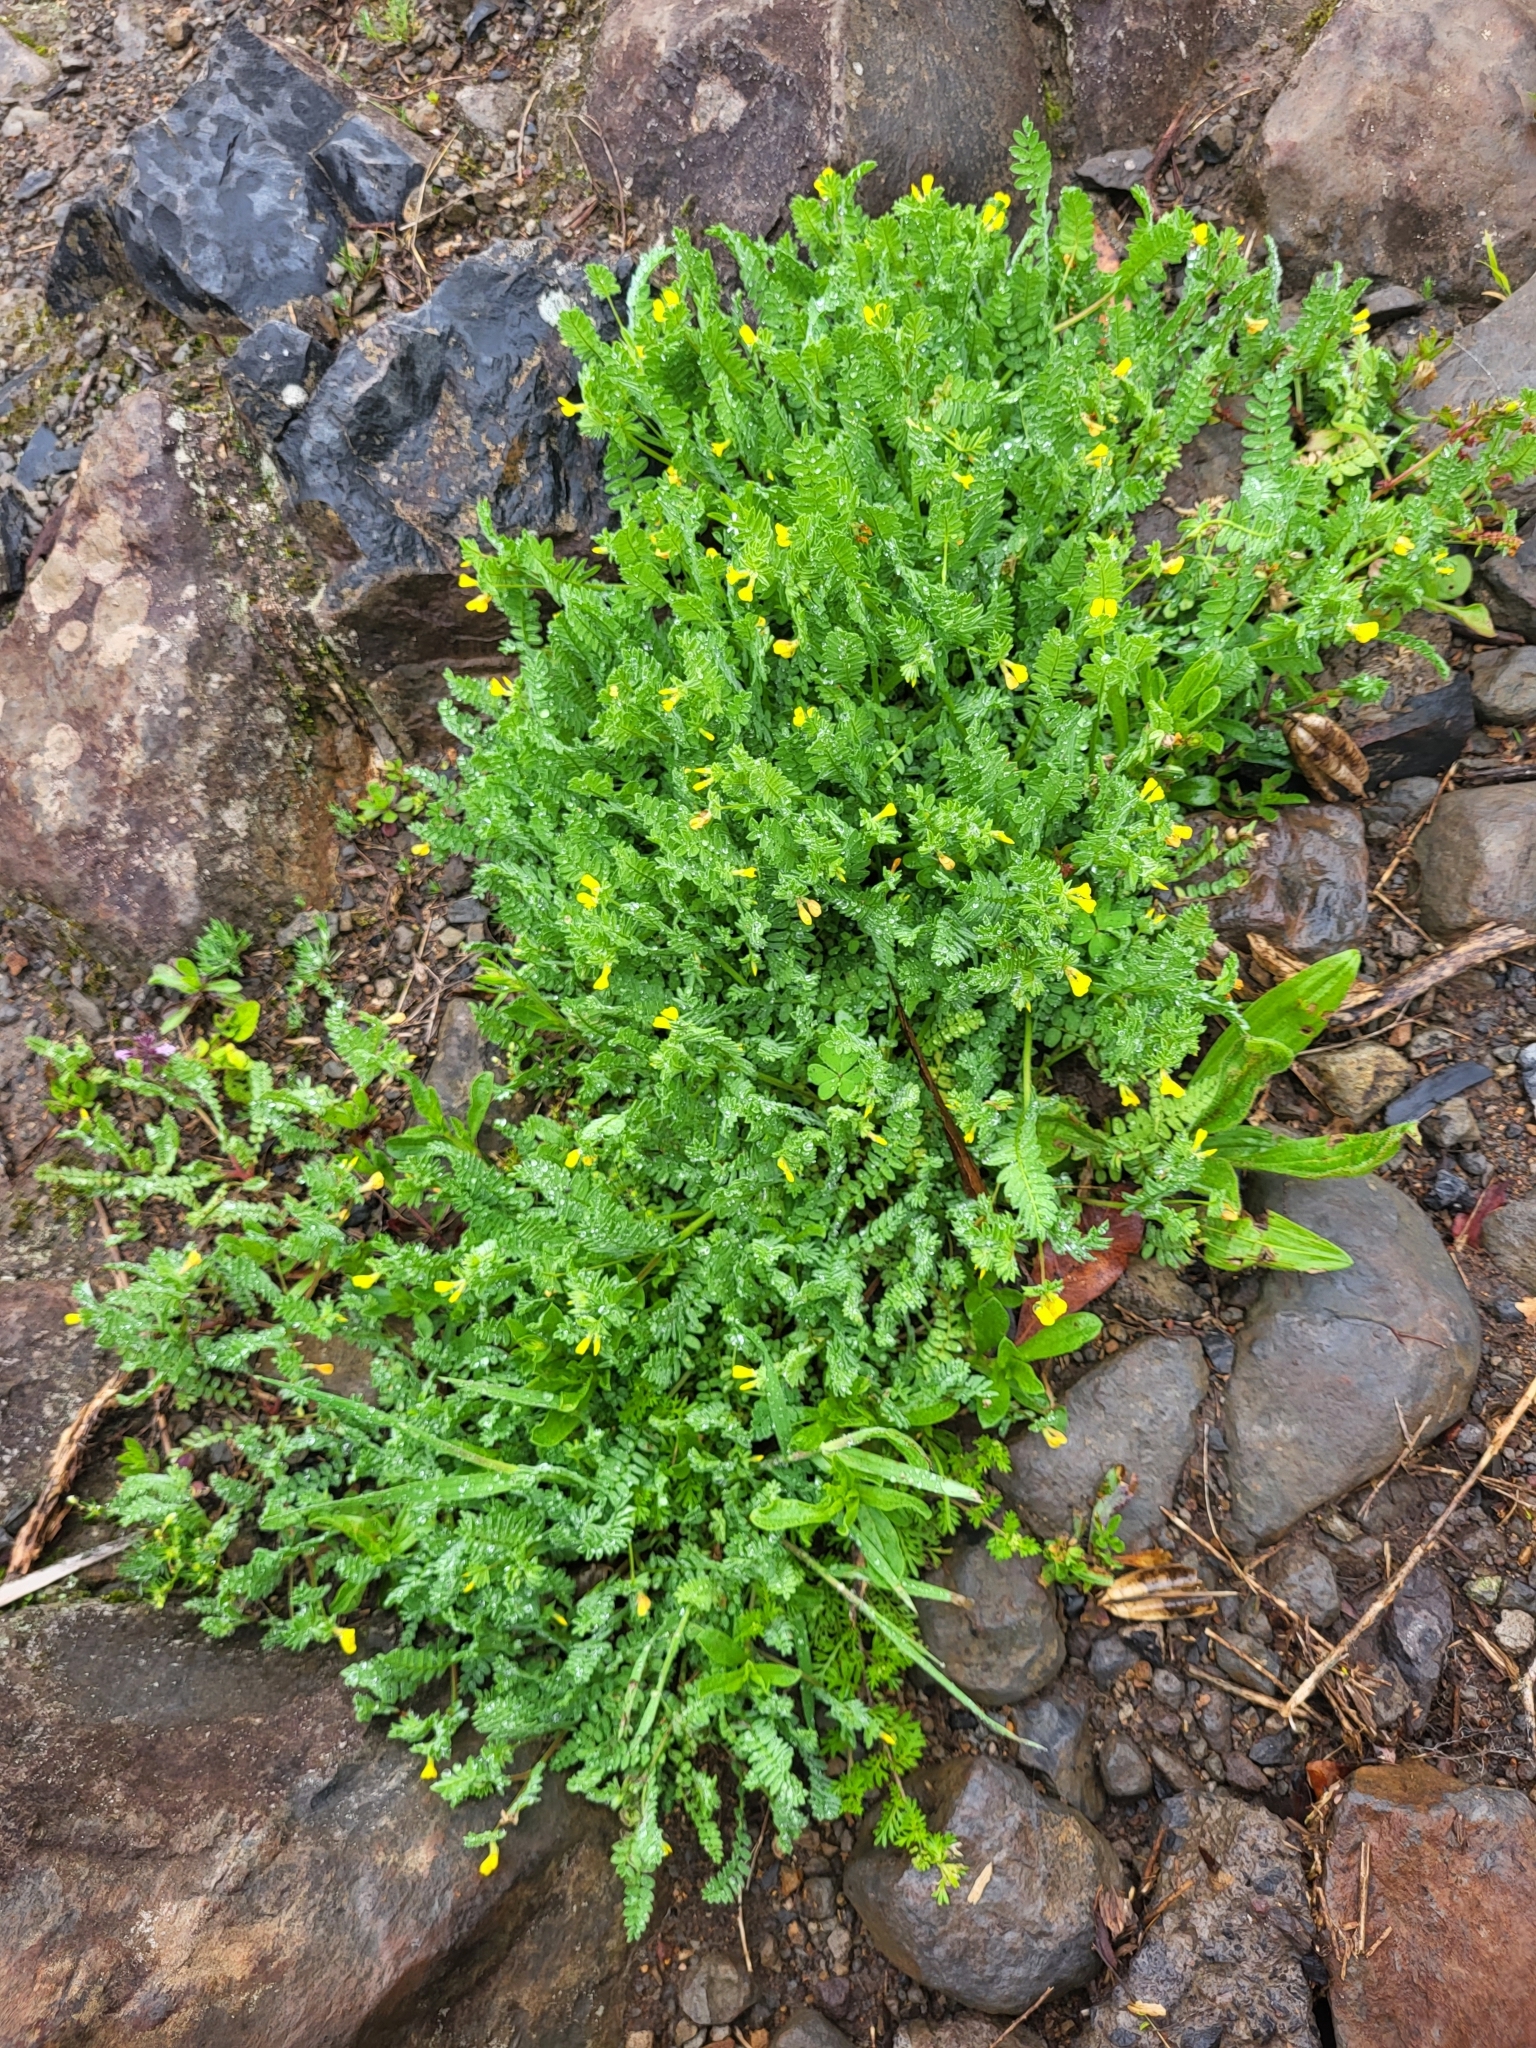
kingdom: Plantae
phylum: Tracheophyta
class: Magnoliopsida
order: Fabales
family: Fabaceae
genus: Ornithopus
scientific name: Ornithopus compressus
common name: Yellow serradella
